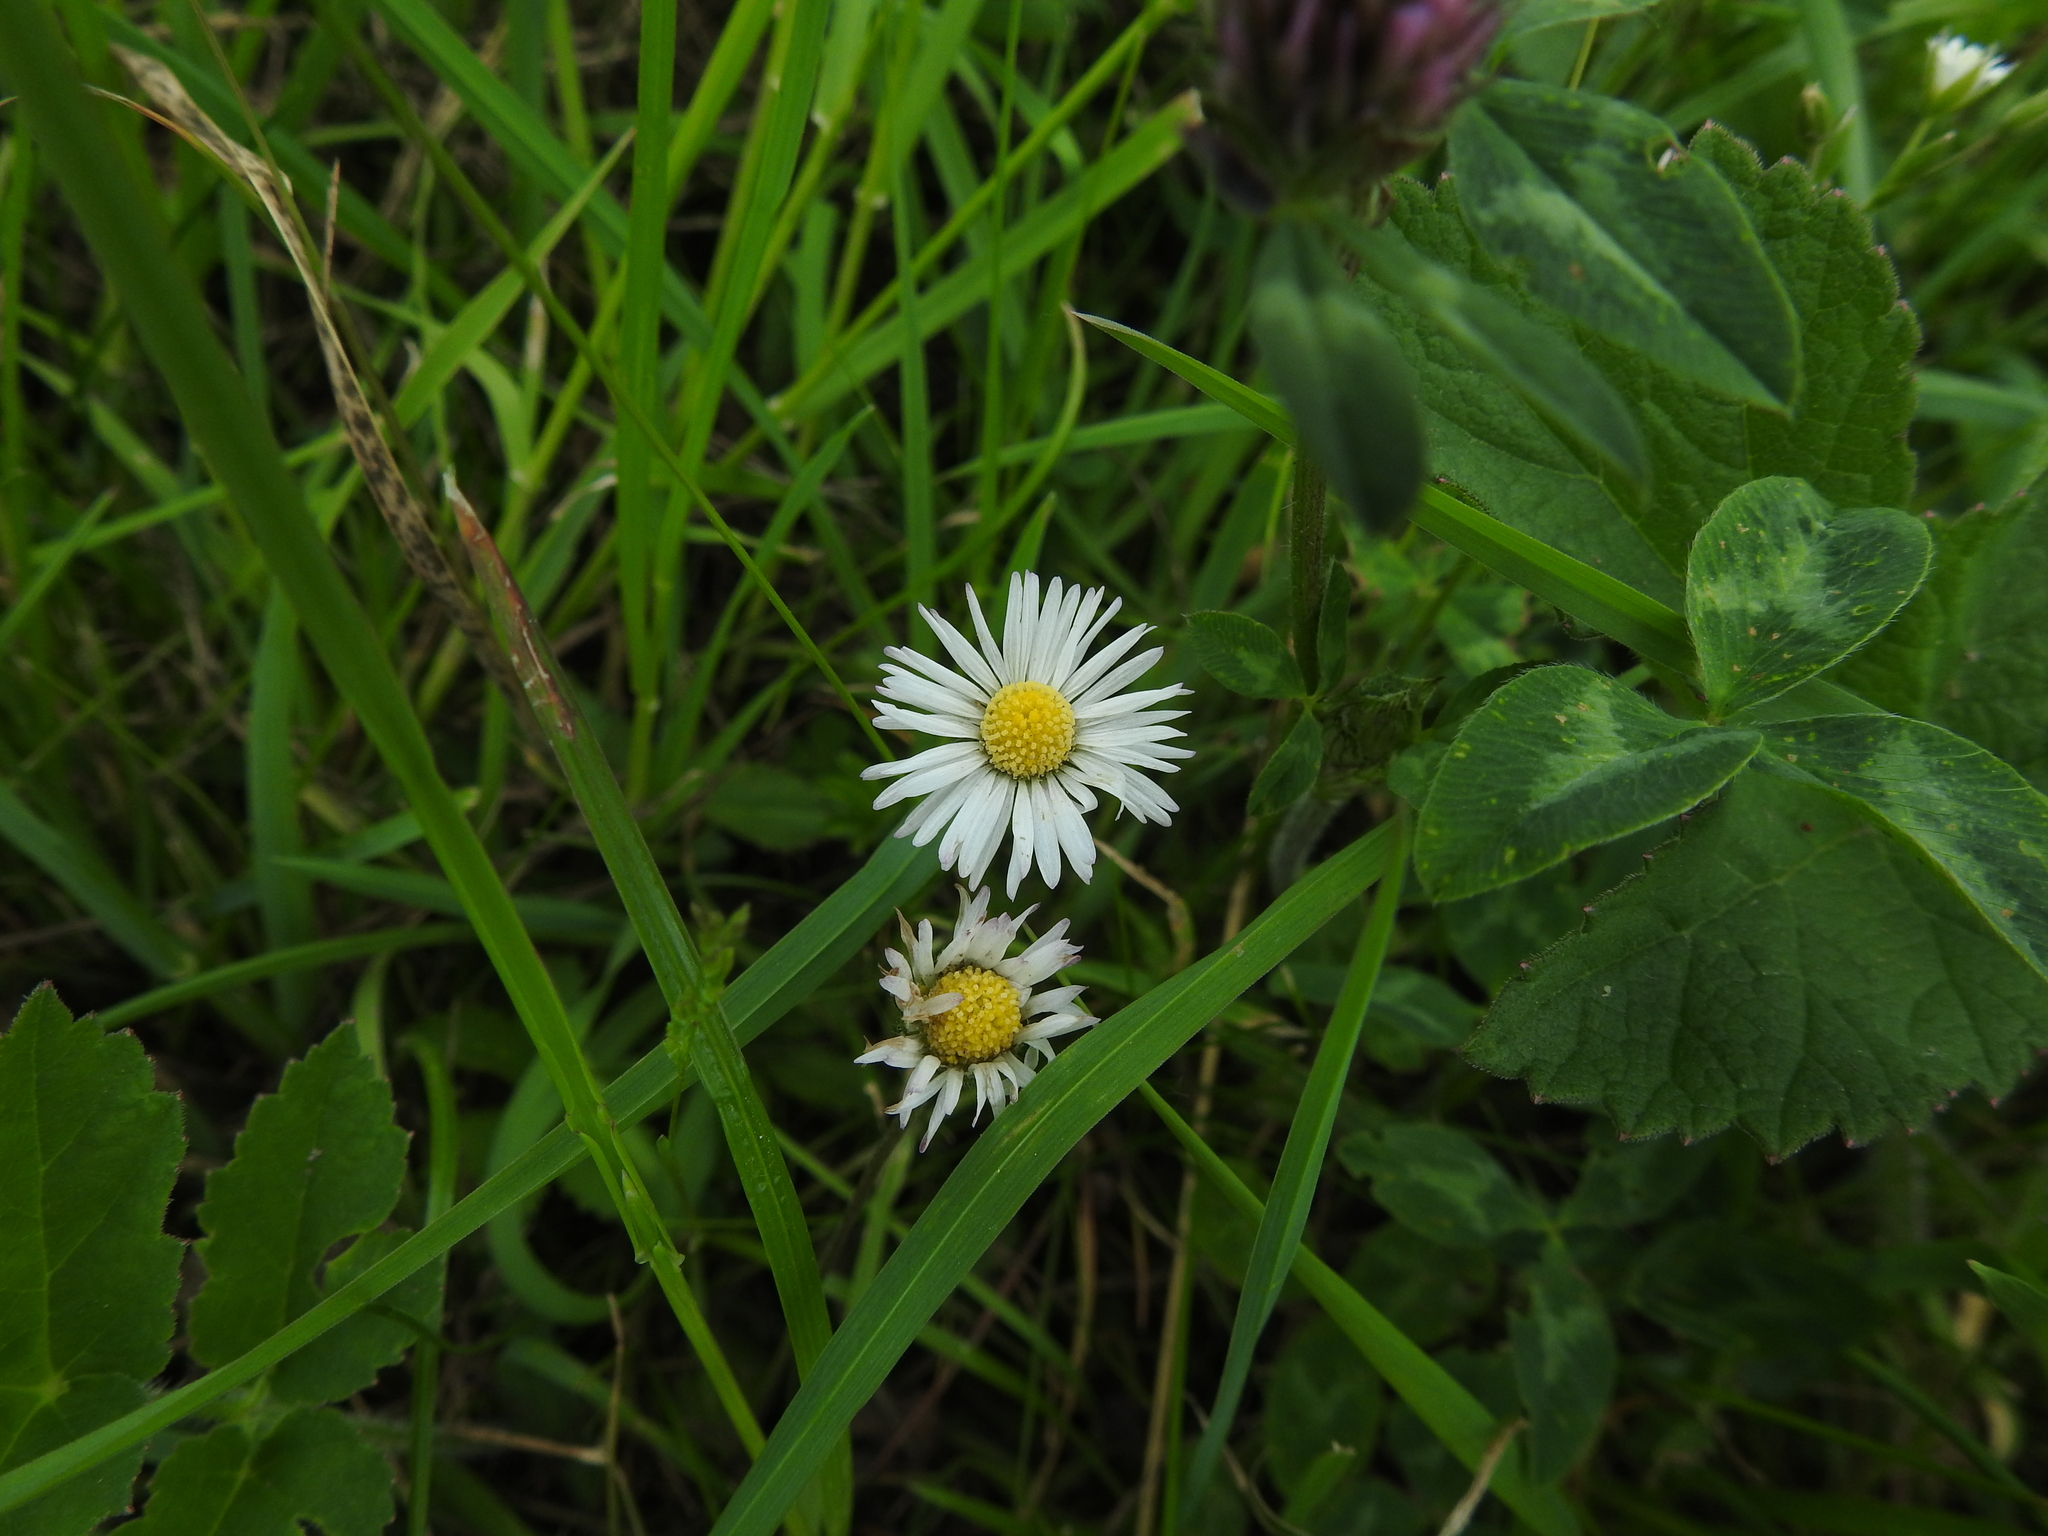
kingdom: Plantae
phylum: Tracheophyta
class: Magnoliopsida
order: Asterales
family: Asteraceae
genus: Bellis
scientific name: Bellis perennis
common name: Lawndaisy
